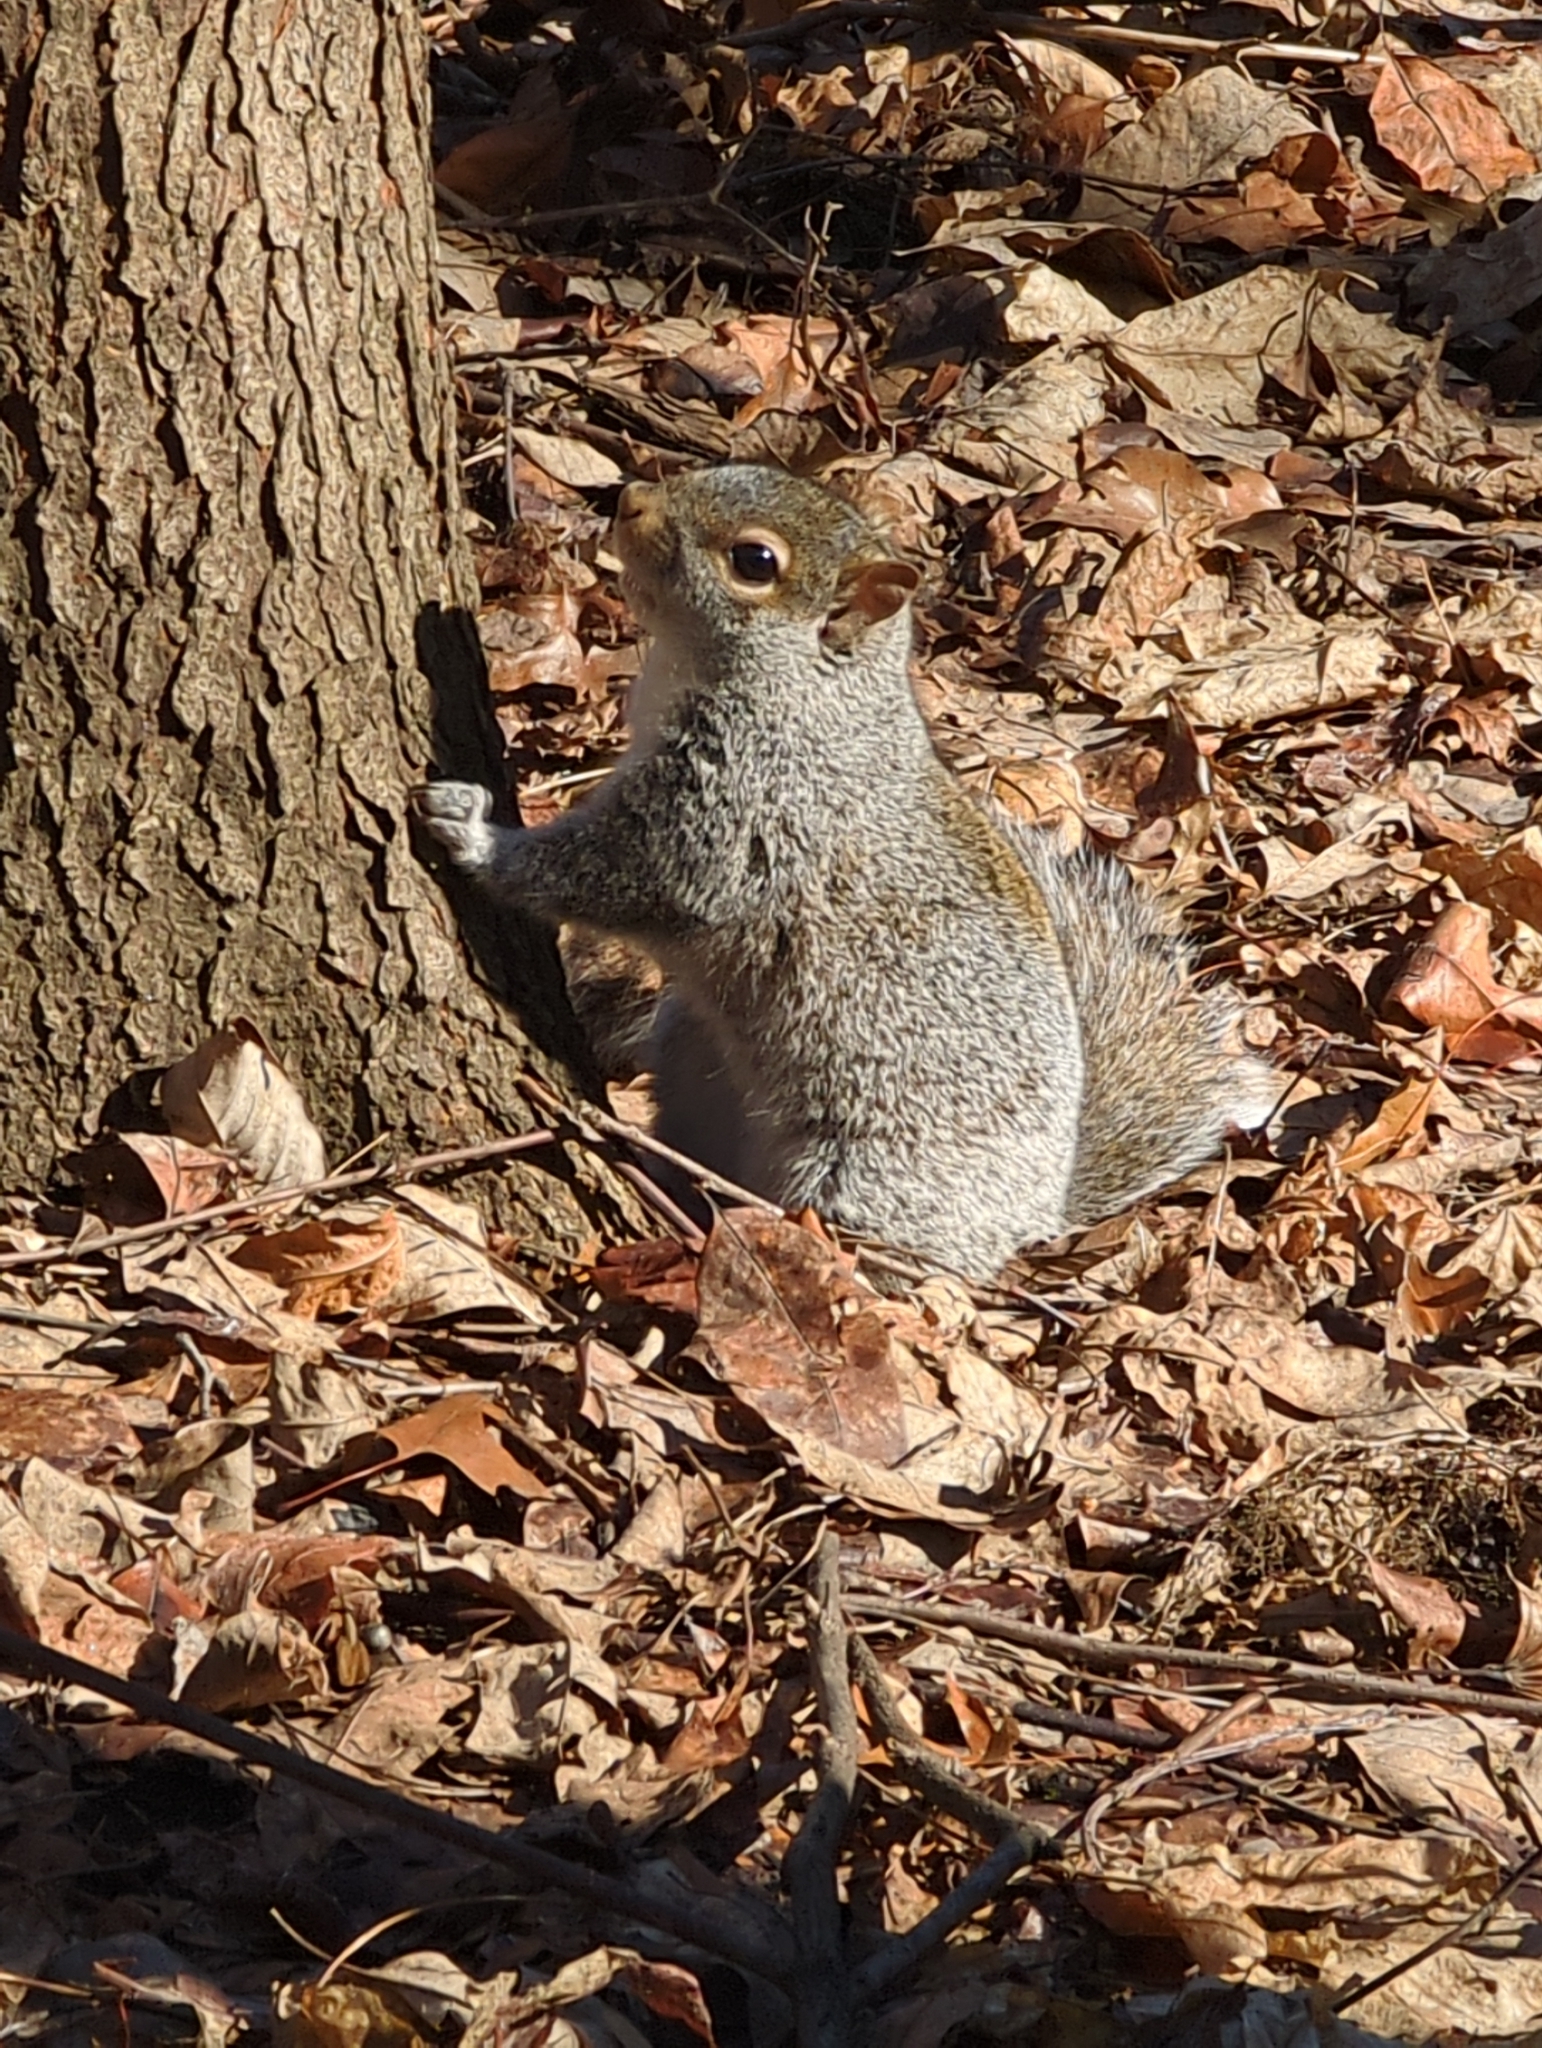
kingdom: Animalia
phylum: Chordata
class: Mammalia
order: Rodentia
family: Sciuridae
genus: Sciurus
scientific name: Sciurus carolinensis
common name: Eastern gray squirrel
